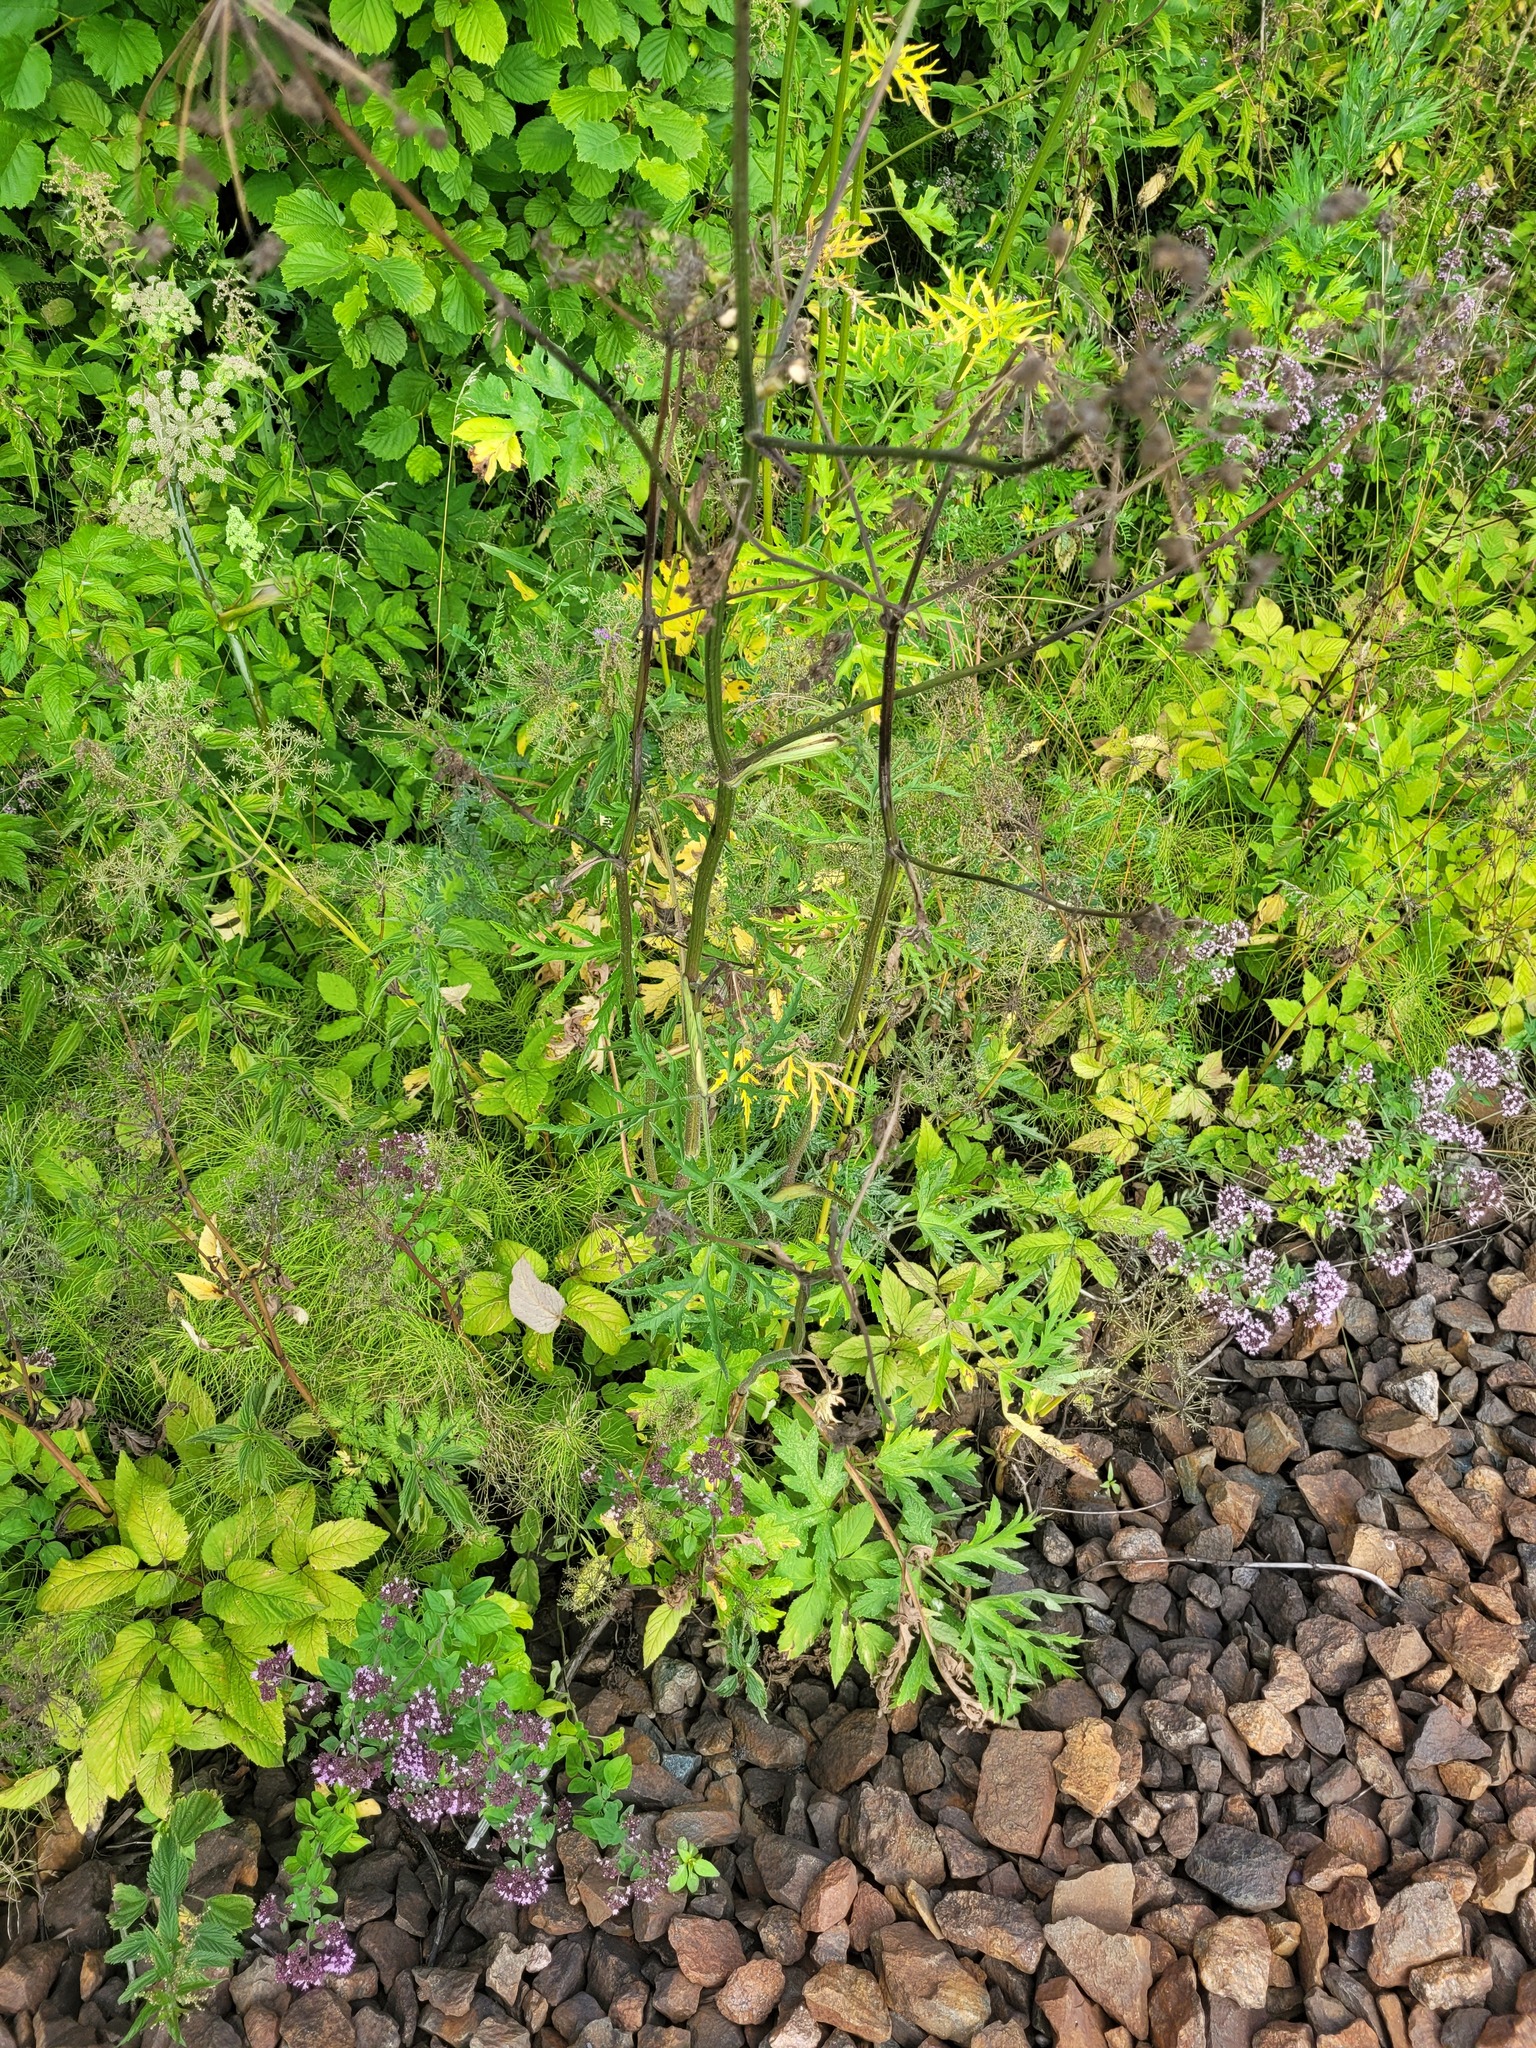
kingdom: Plantae
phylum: Tracheophyta
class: Magnoliopsida
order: Apiales
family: Apiaceae
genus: Heracleum
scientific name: Heracleum sphondylium
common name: Hogweed
